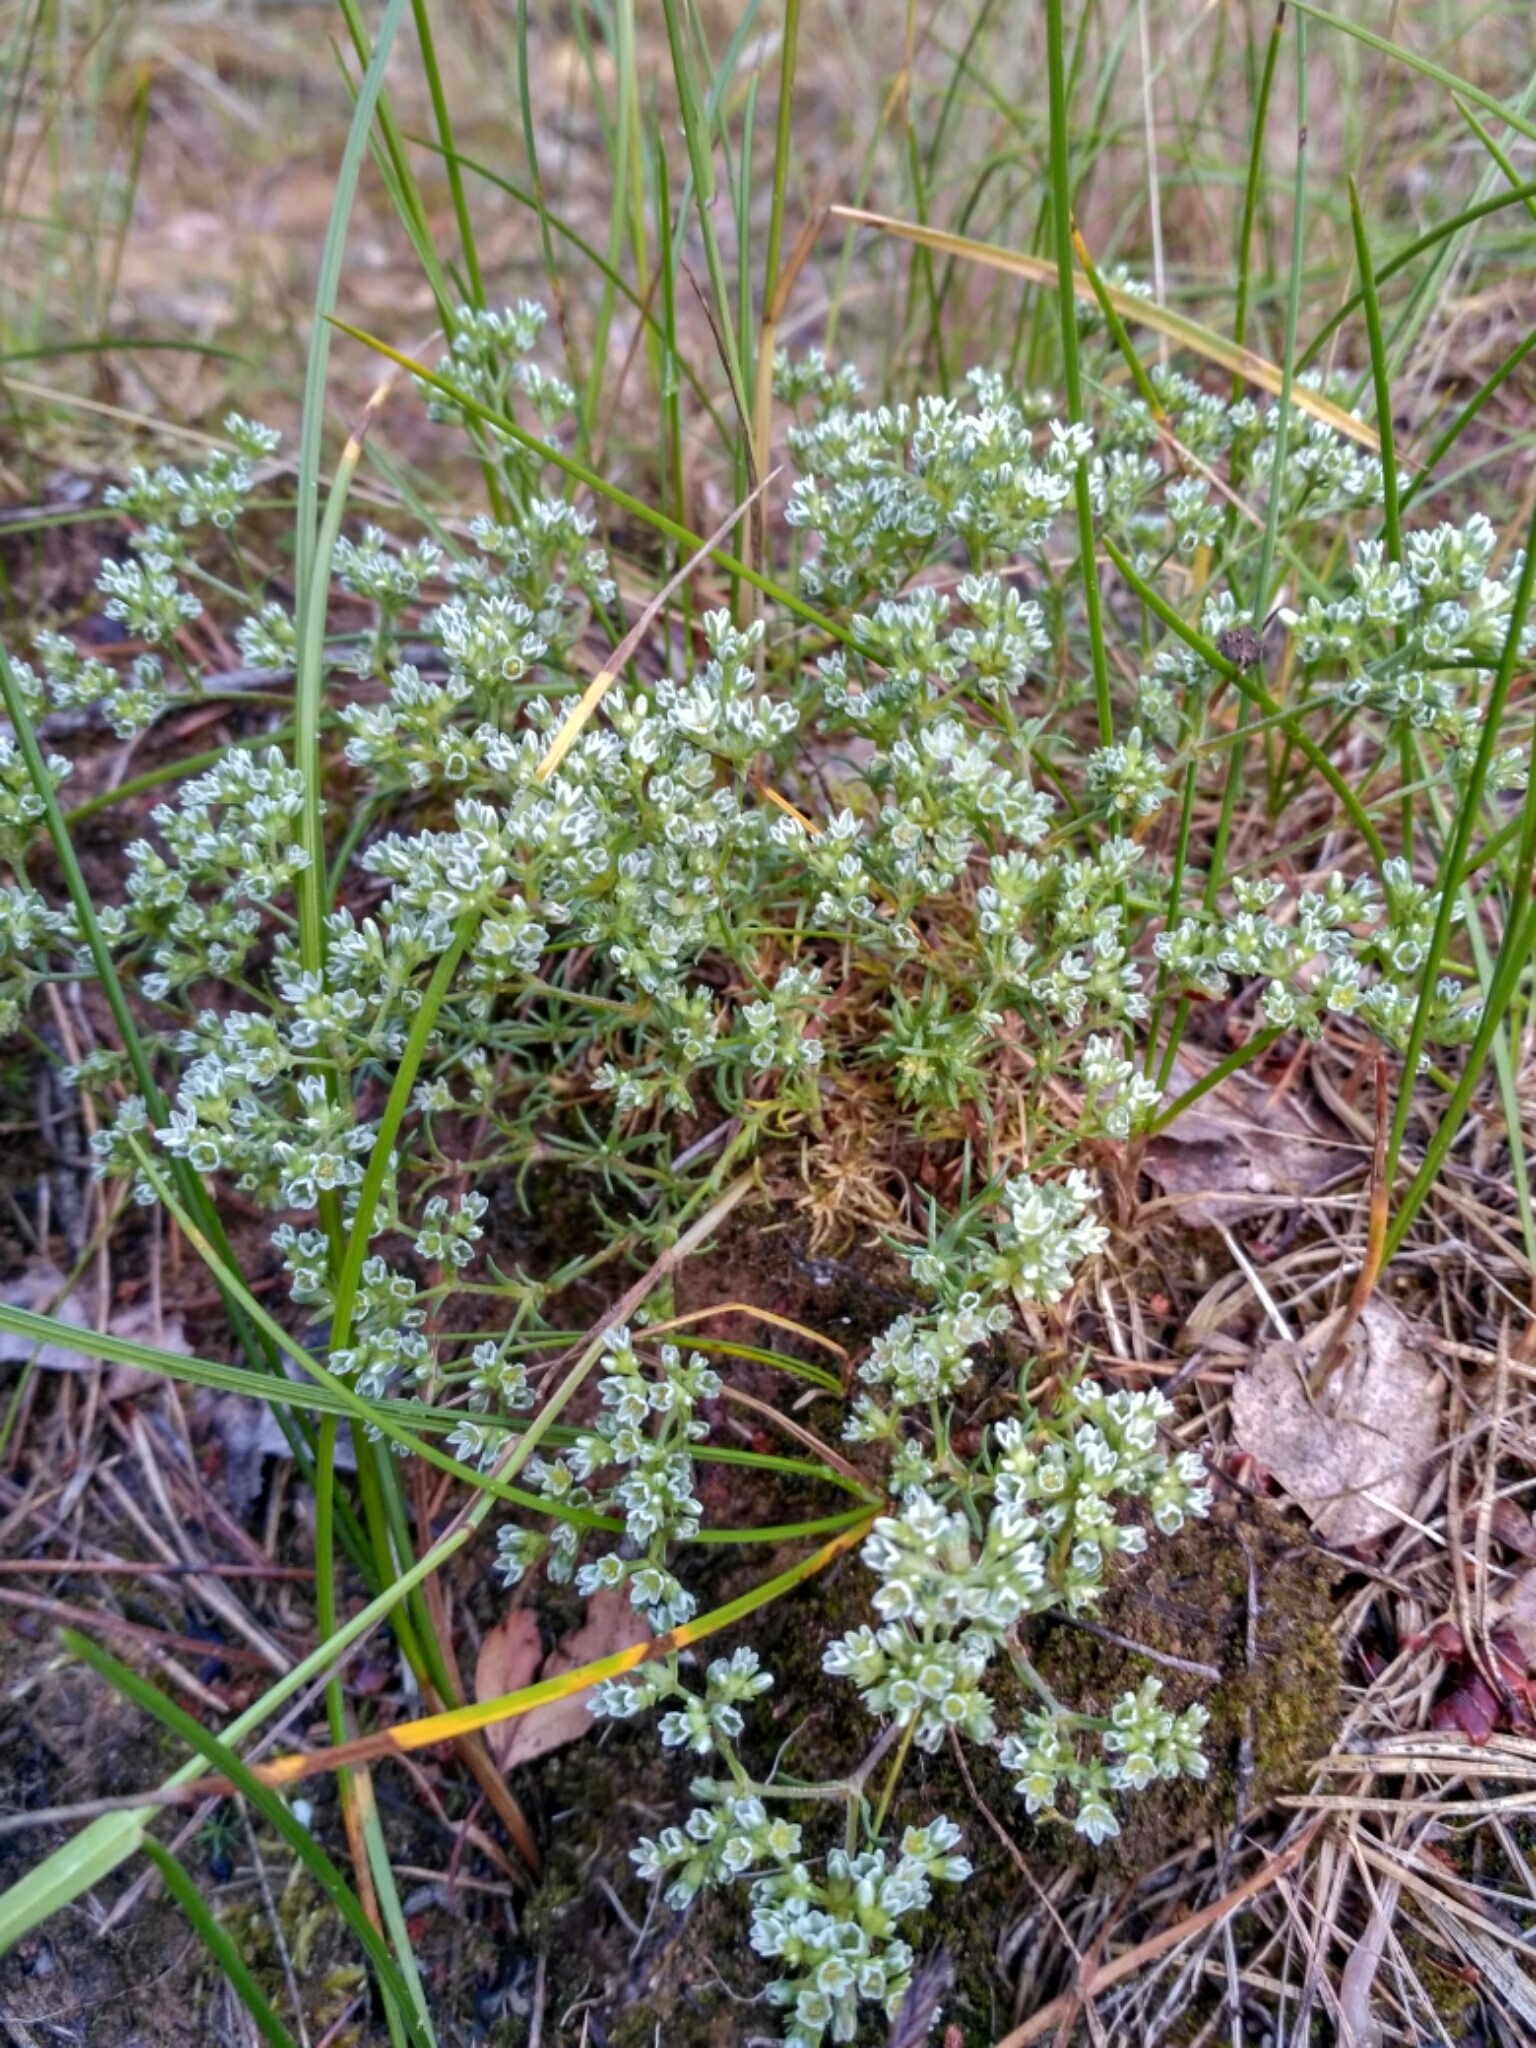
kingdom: Plantae
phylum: Tracheophyta
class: Magnoliopsida
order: Caryophyllales
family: Caryophyllaceae
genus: Scleranthus
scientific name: Scleranthus perennis
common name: Perennial knawel
